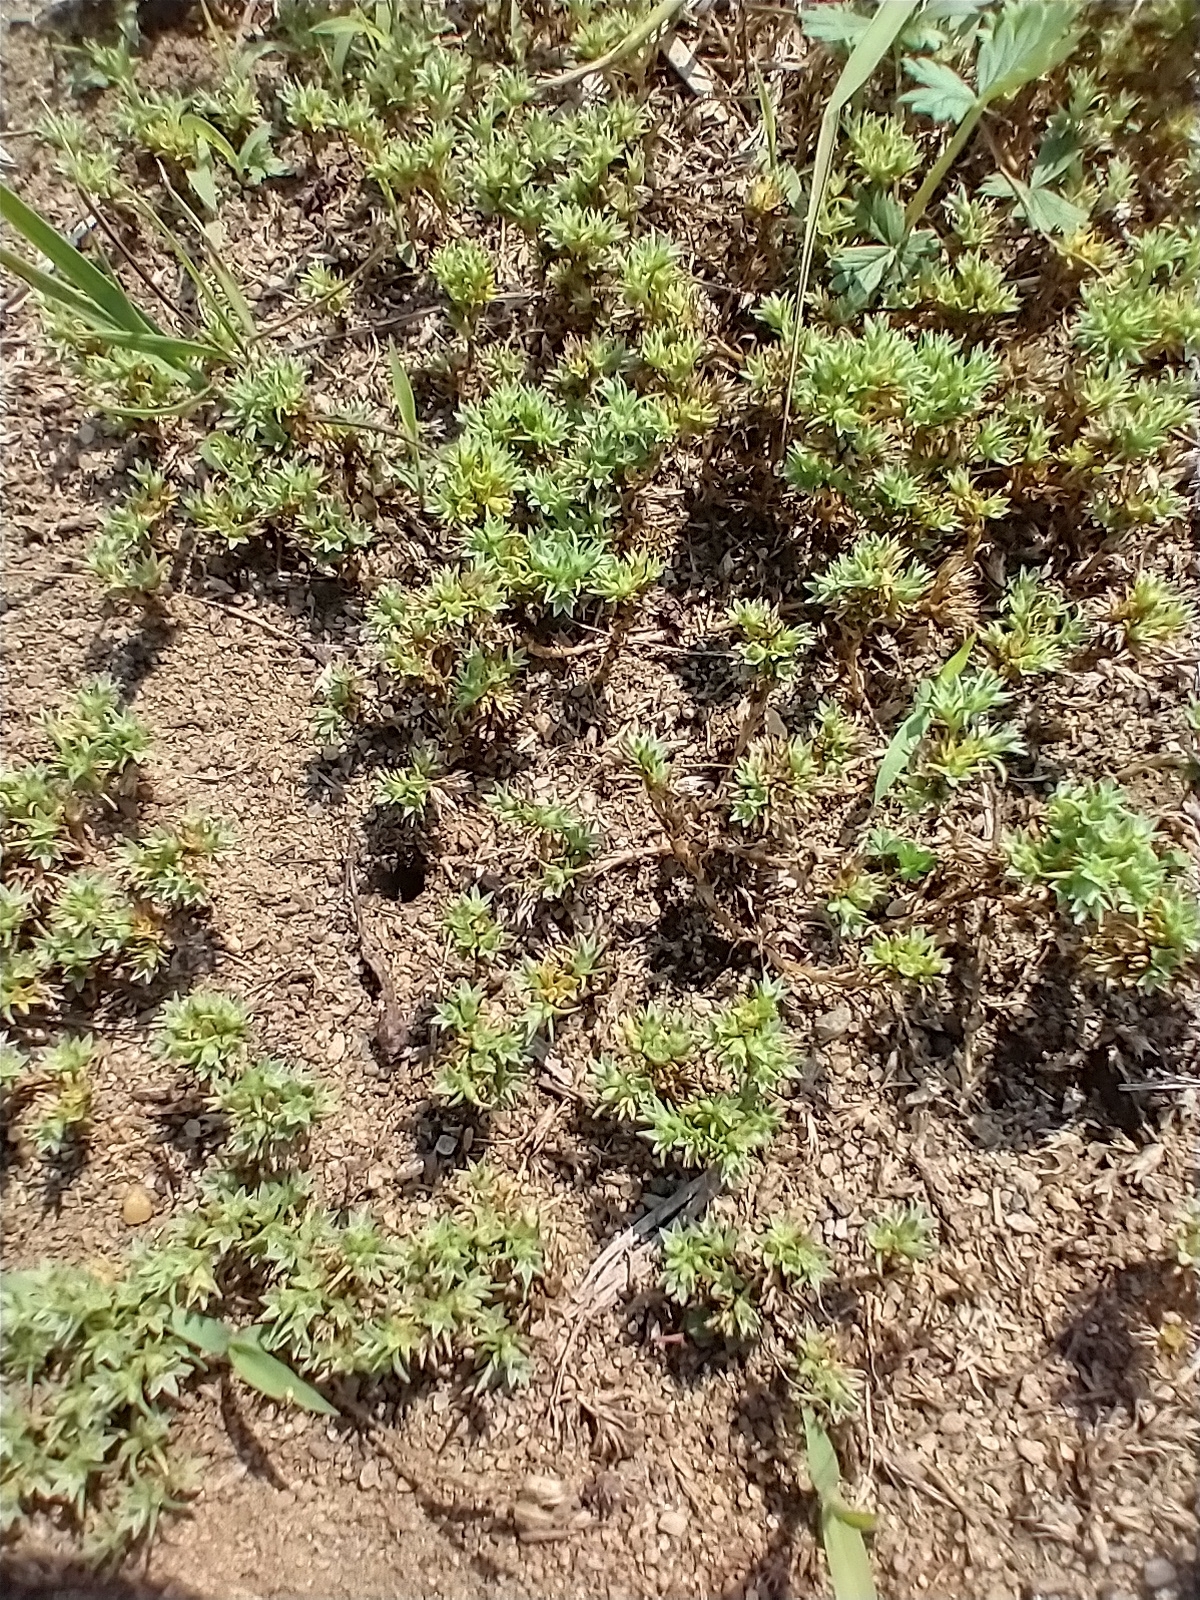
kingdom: Plantae
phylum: Tracheophyta
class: Magnoliopsida
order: Caryophyllales
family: Caryophyllaceae
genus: Scleranthus
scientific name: Scleranthus annuus
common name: Annual knawel
